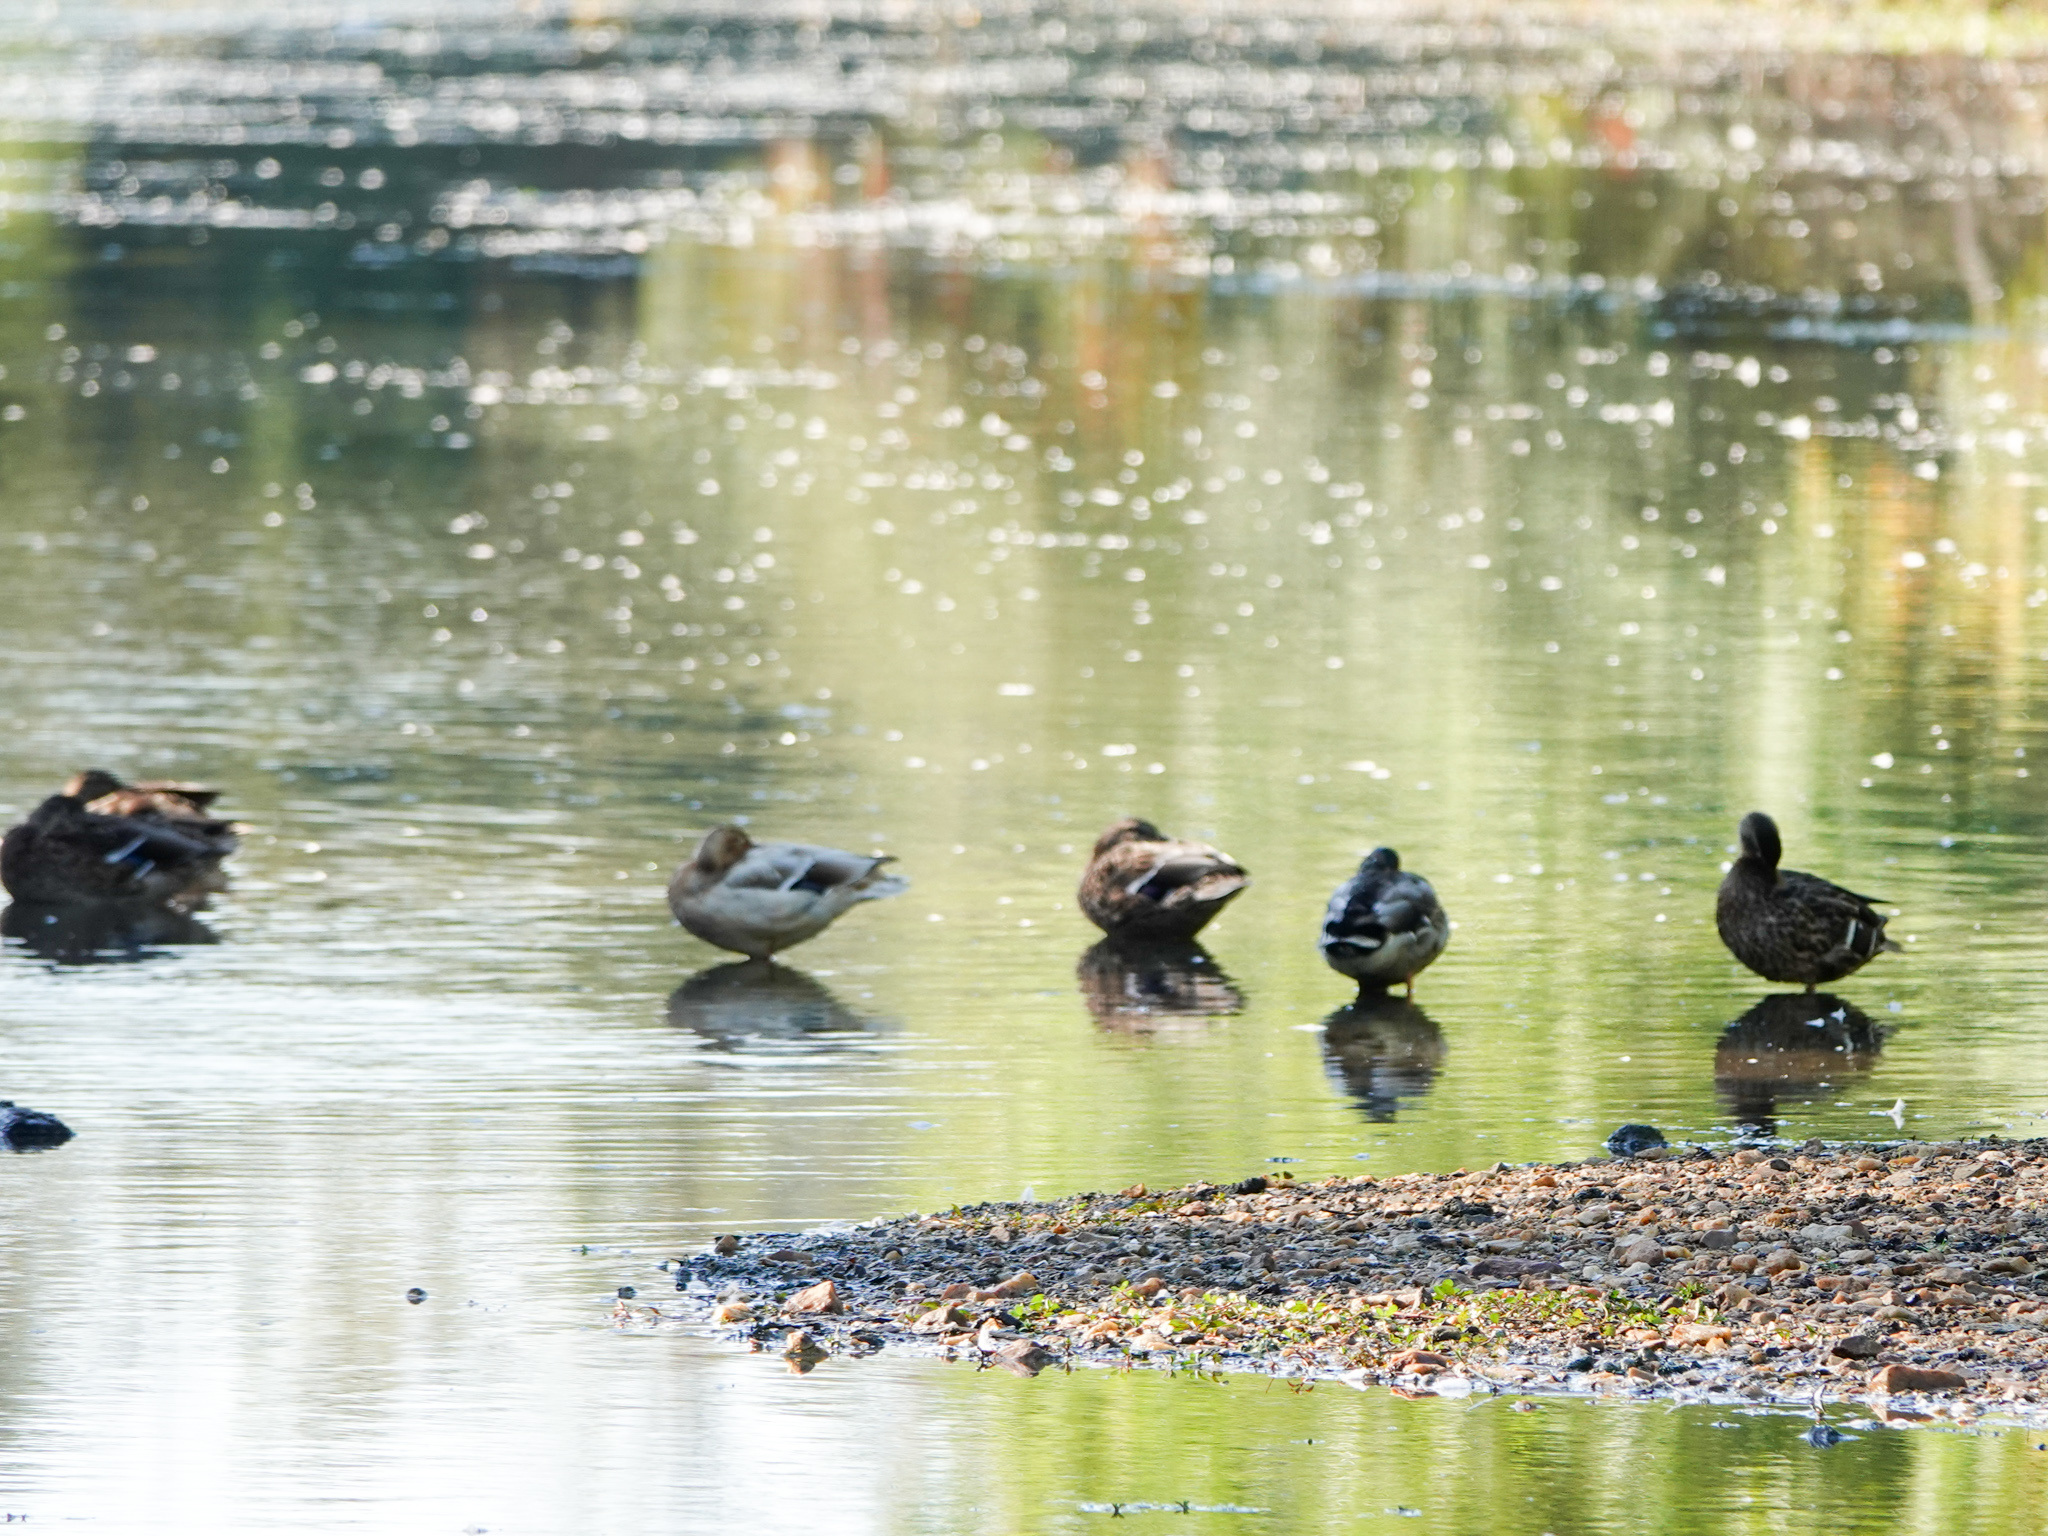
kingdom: Animalia
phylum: Chordata
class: Aves
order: Anseriformes
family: Anatidae
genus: Anas
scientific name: Anas platyrhynchos
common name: Mallard
